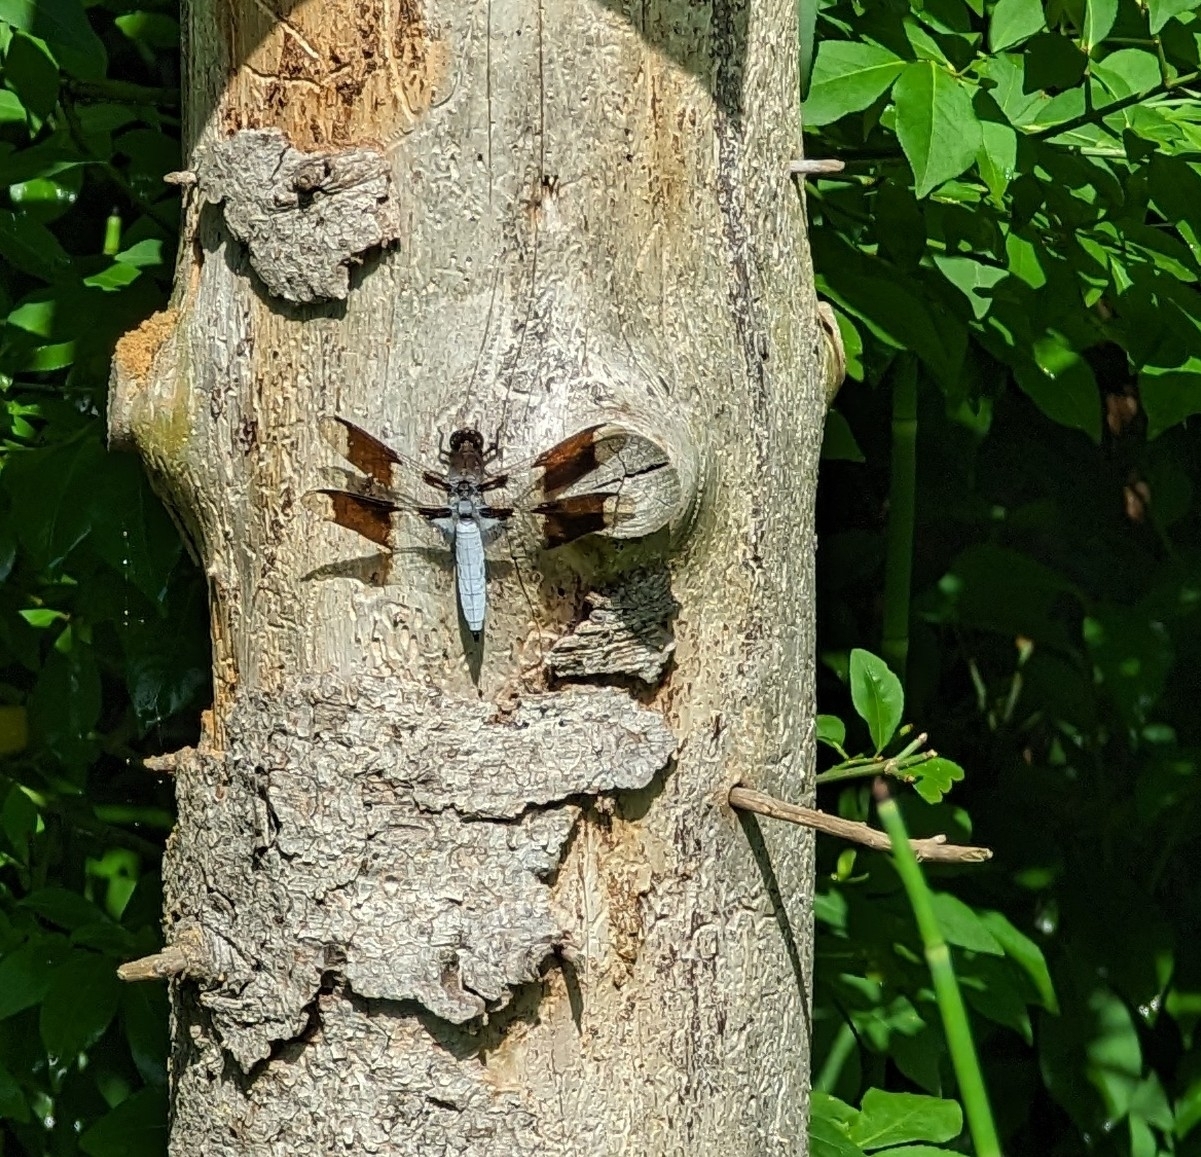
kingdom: Animalia
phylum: Arthropoda
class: Insecta
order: Odonata
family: Libellulidae
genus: Plathemis
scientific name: Plathemis lydia
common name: Common whitetail
